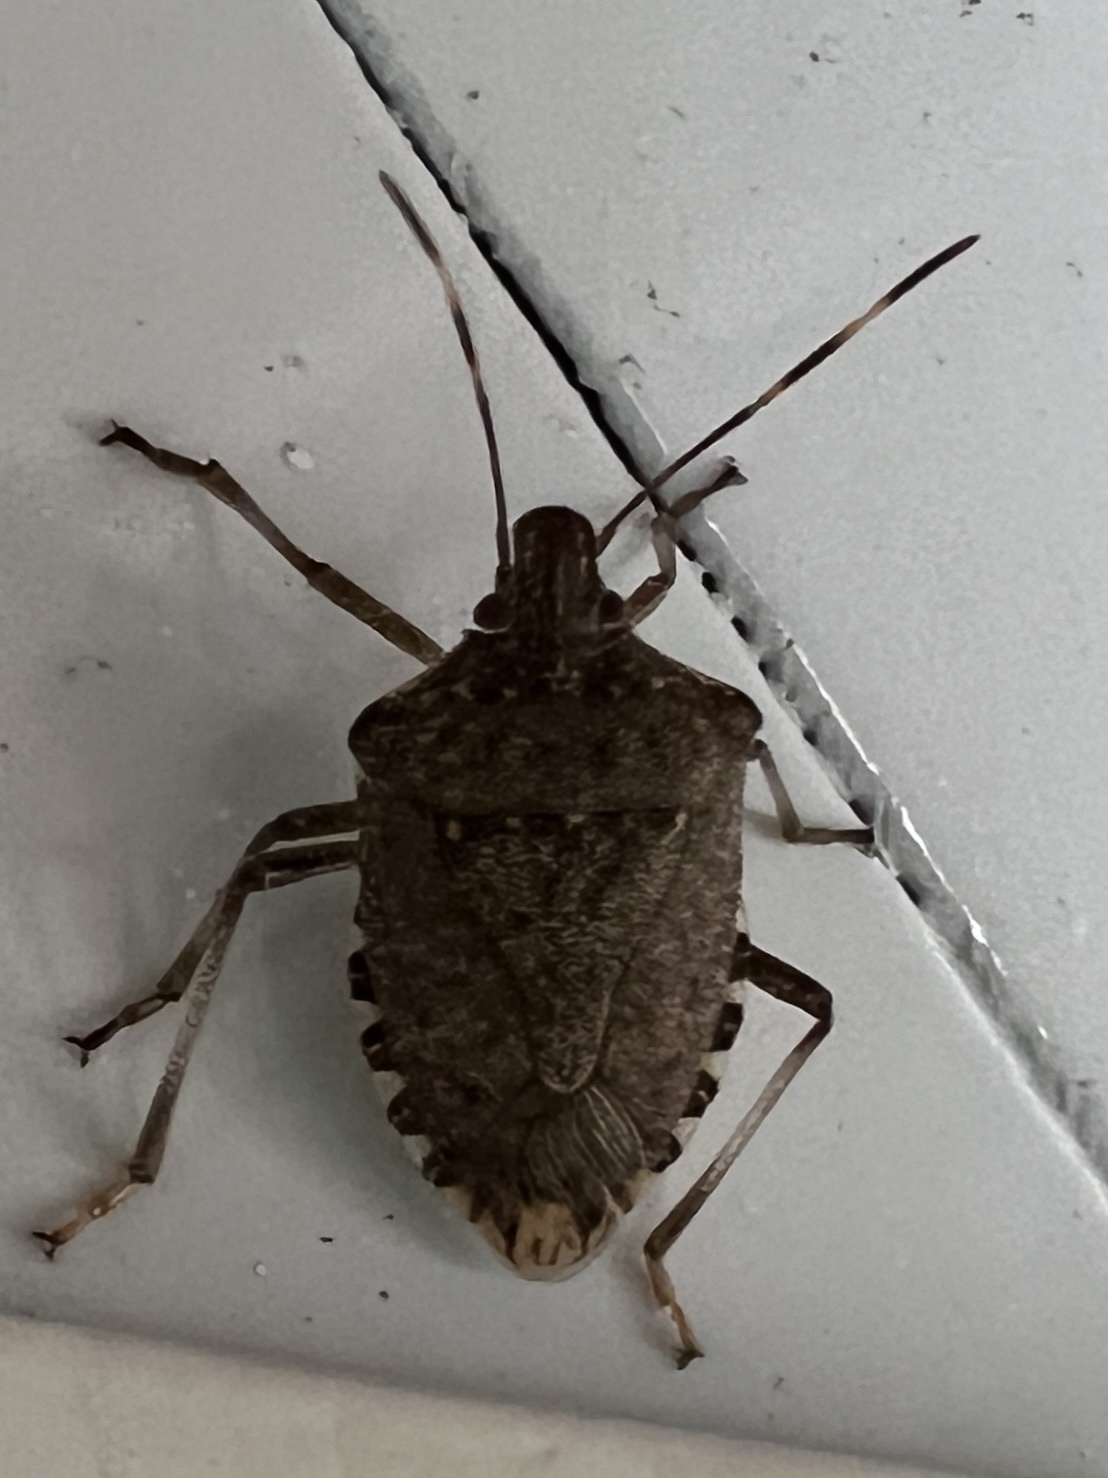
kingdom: Animalia
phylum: Arthropoda
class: Insecta
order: Hemiptera
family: Pentatomidae
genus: Halyomorpha
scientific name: Halyomorpha halys
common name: Brown marmorated stink bug
